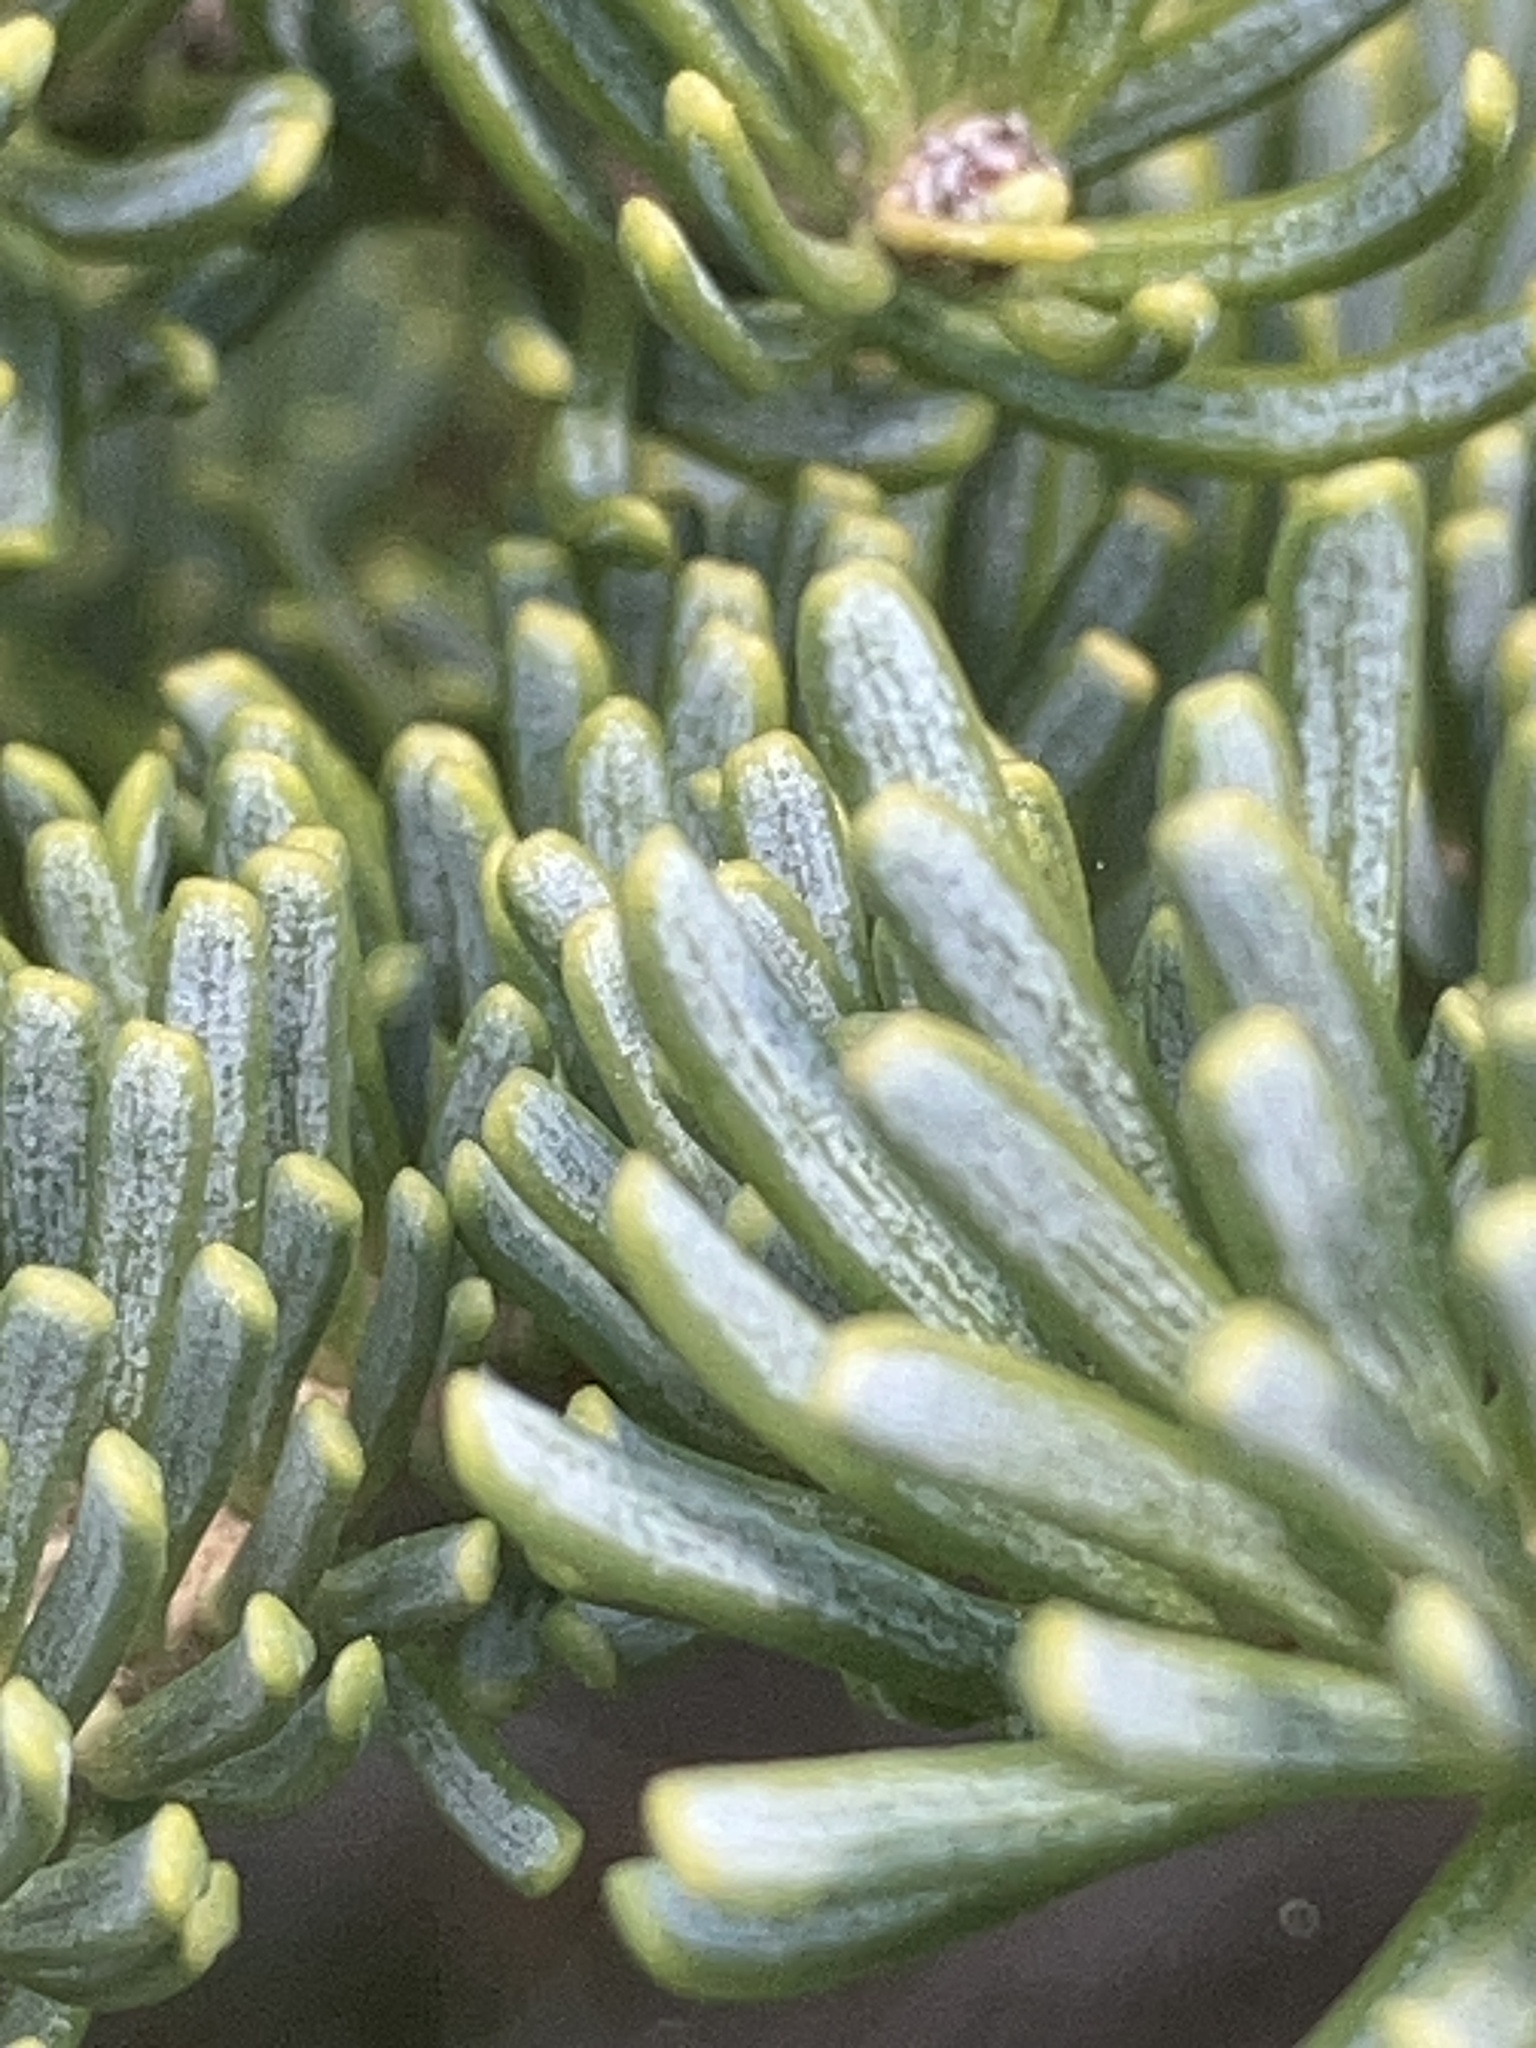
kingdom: Plantae
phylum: Tracheophyta
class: Pinopsida
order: Pinales
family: Pinaceae
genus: Abies
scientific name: Abies lasiocarpa
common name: Subalpine fir
